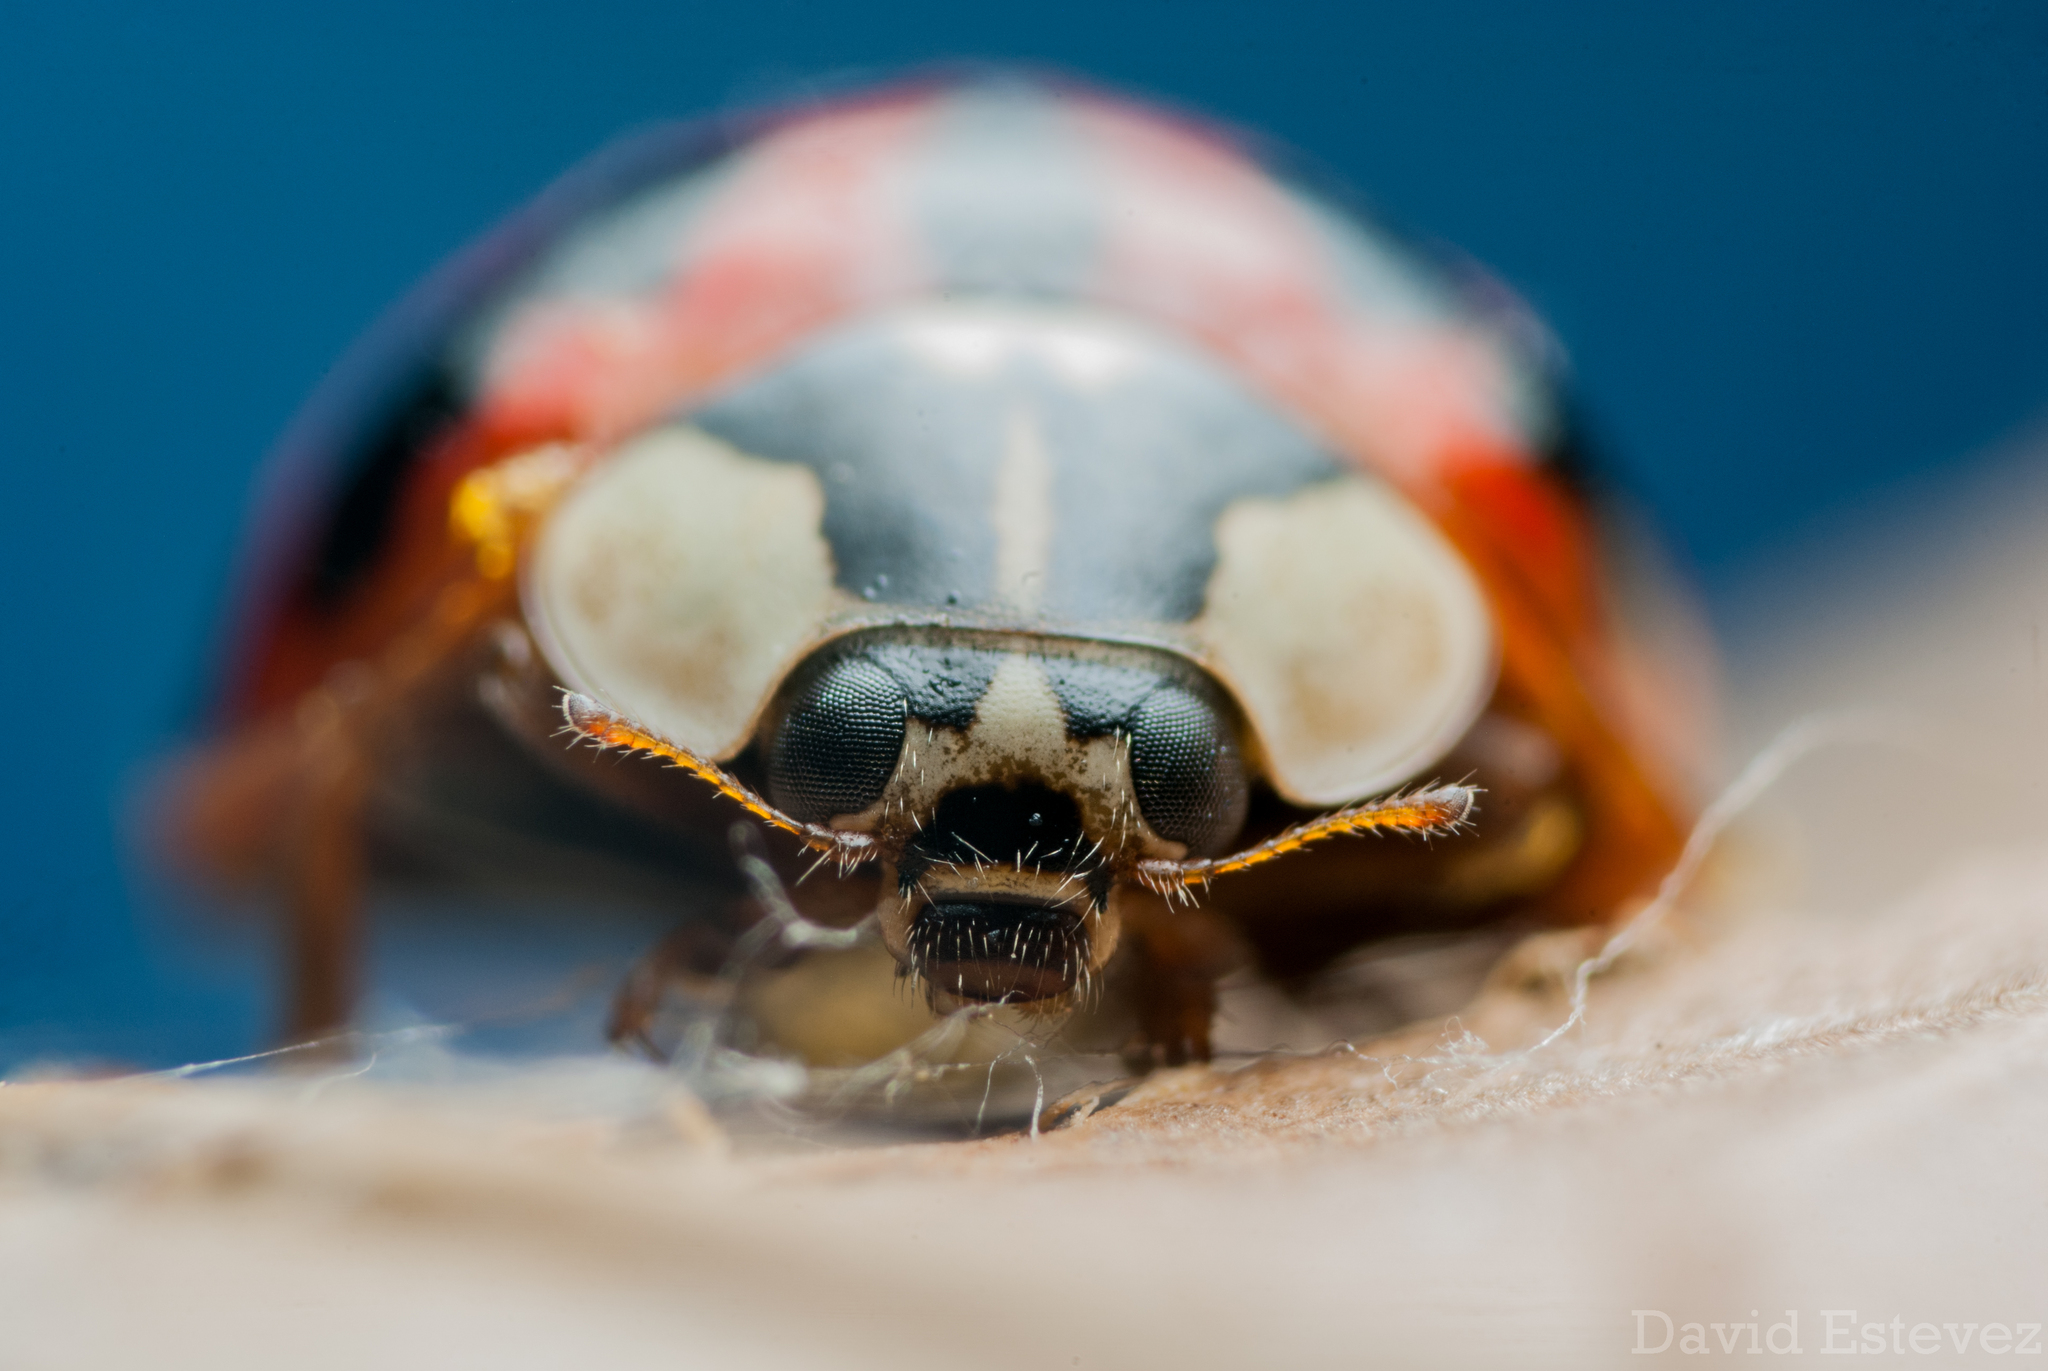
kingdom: Animalia
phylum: Arthropoda
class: Insecta
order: Coleoptera
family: Coccinellidae
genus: Harmonia
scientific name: Harmonia axyridis
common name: Harlequin ladybird
